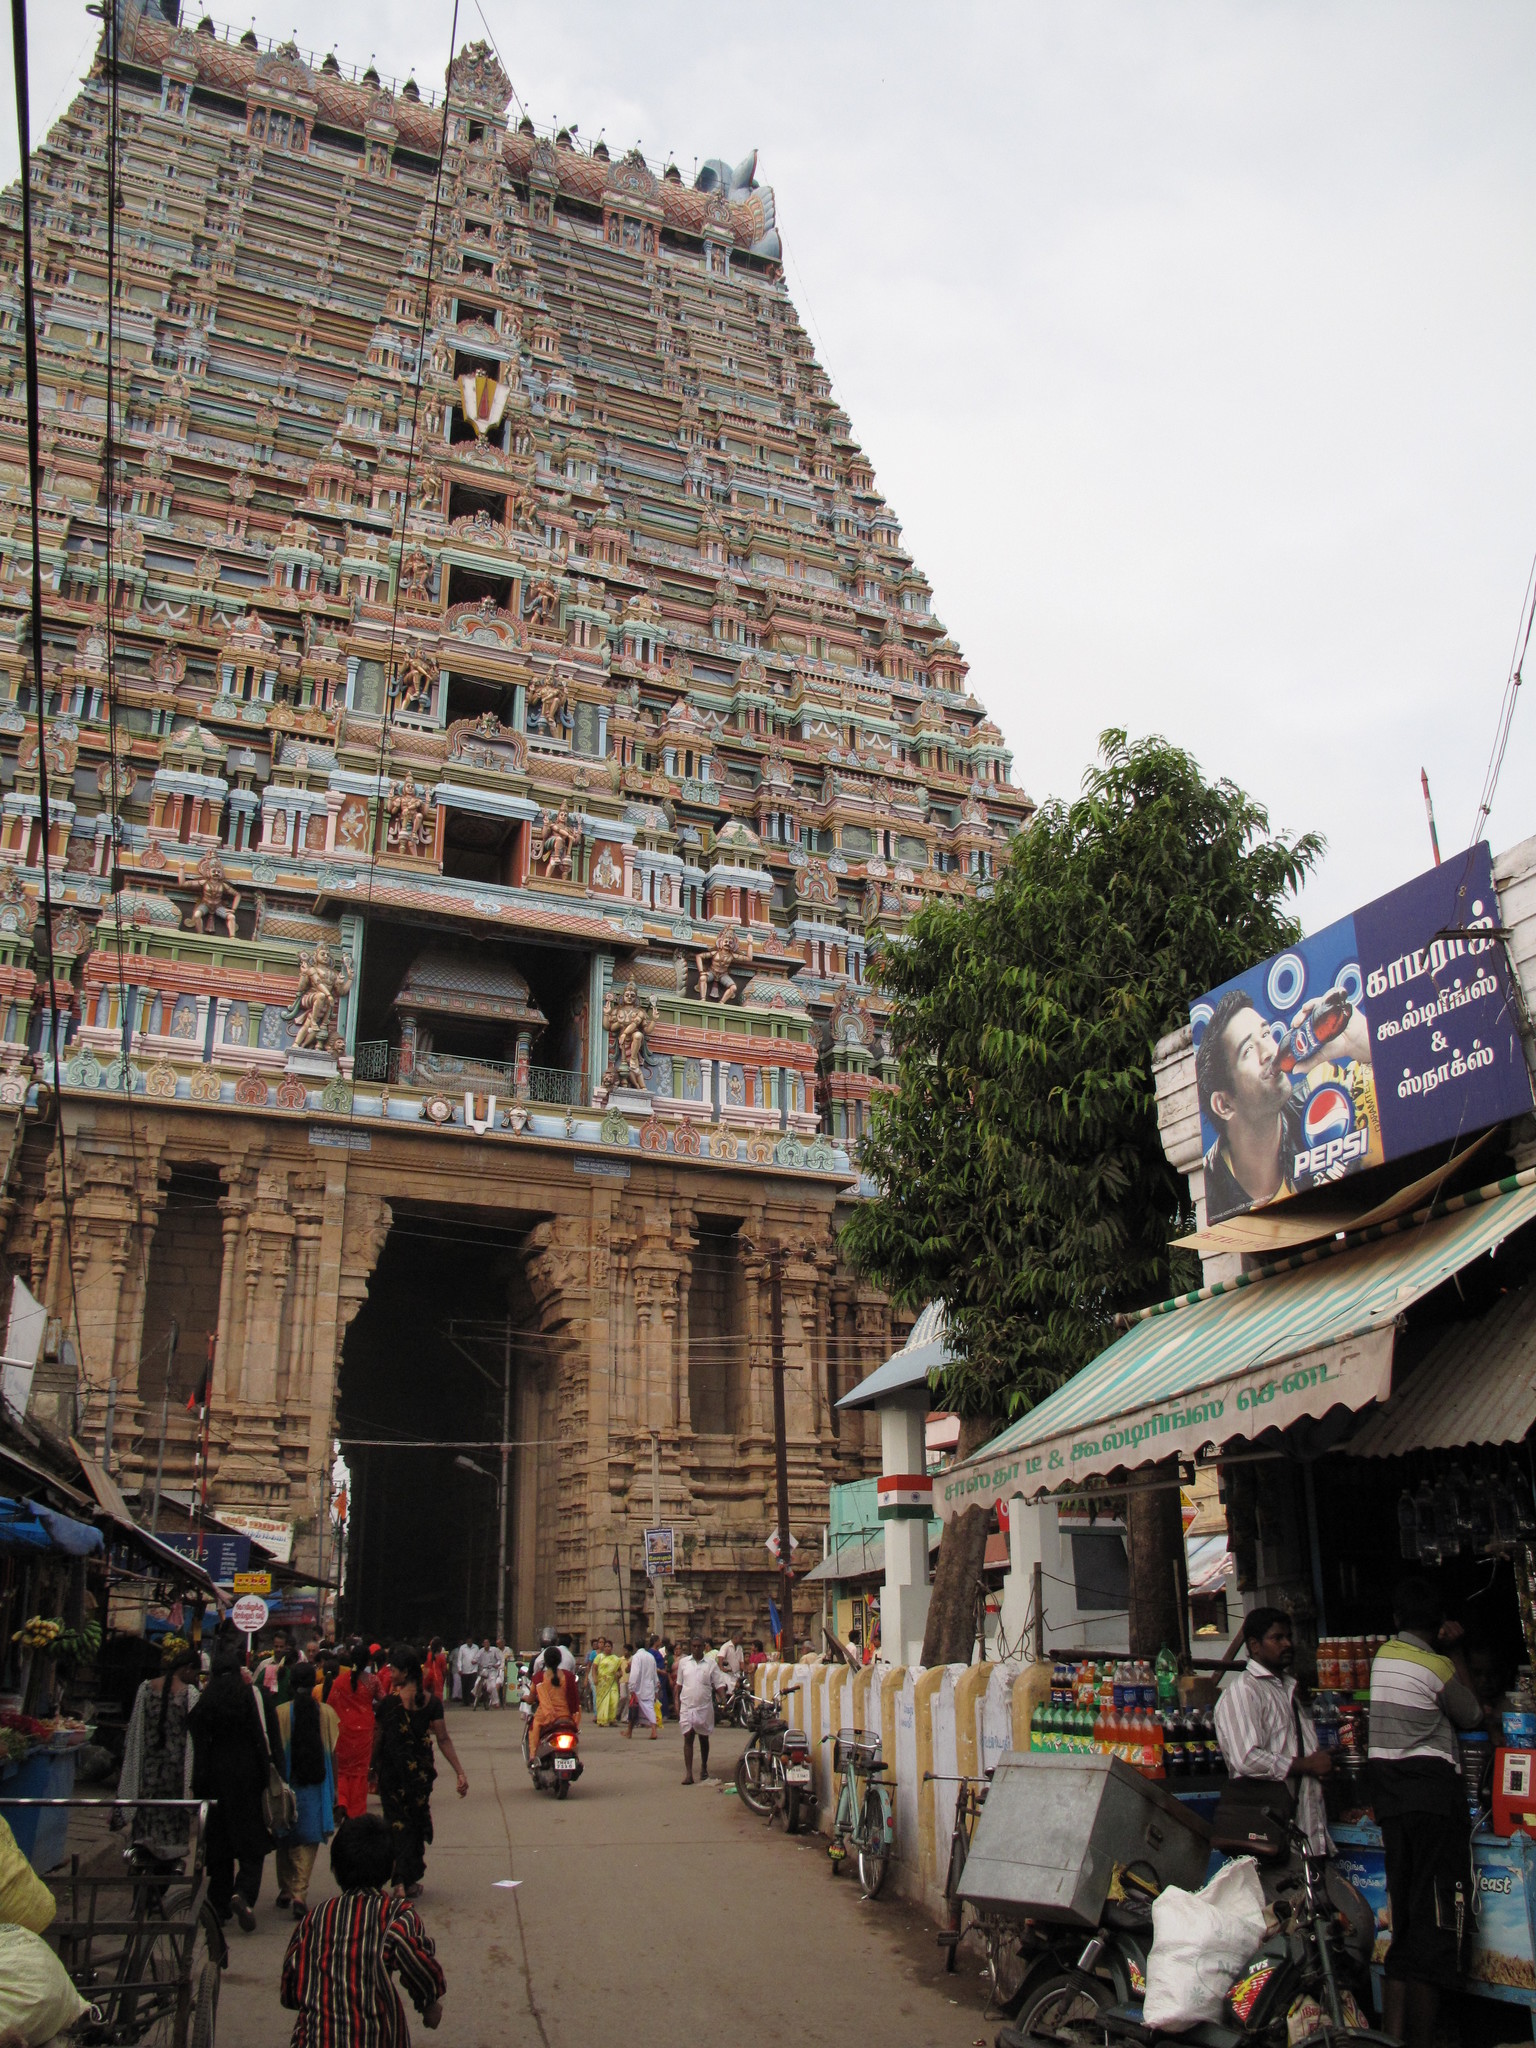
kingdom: Plantae
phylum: Tracheophyta
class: Magnoliopsida
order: Magnoliales
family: Annonaceae
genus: Polyalthia
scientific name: Polyalthia longifolia
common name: Cemetery-tree
